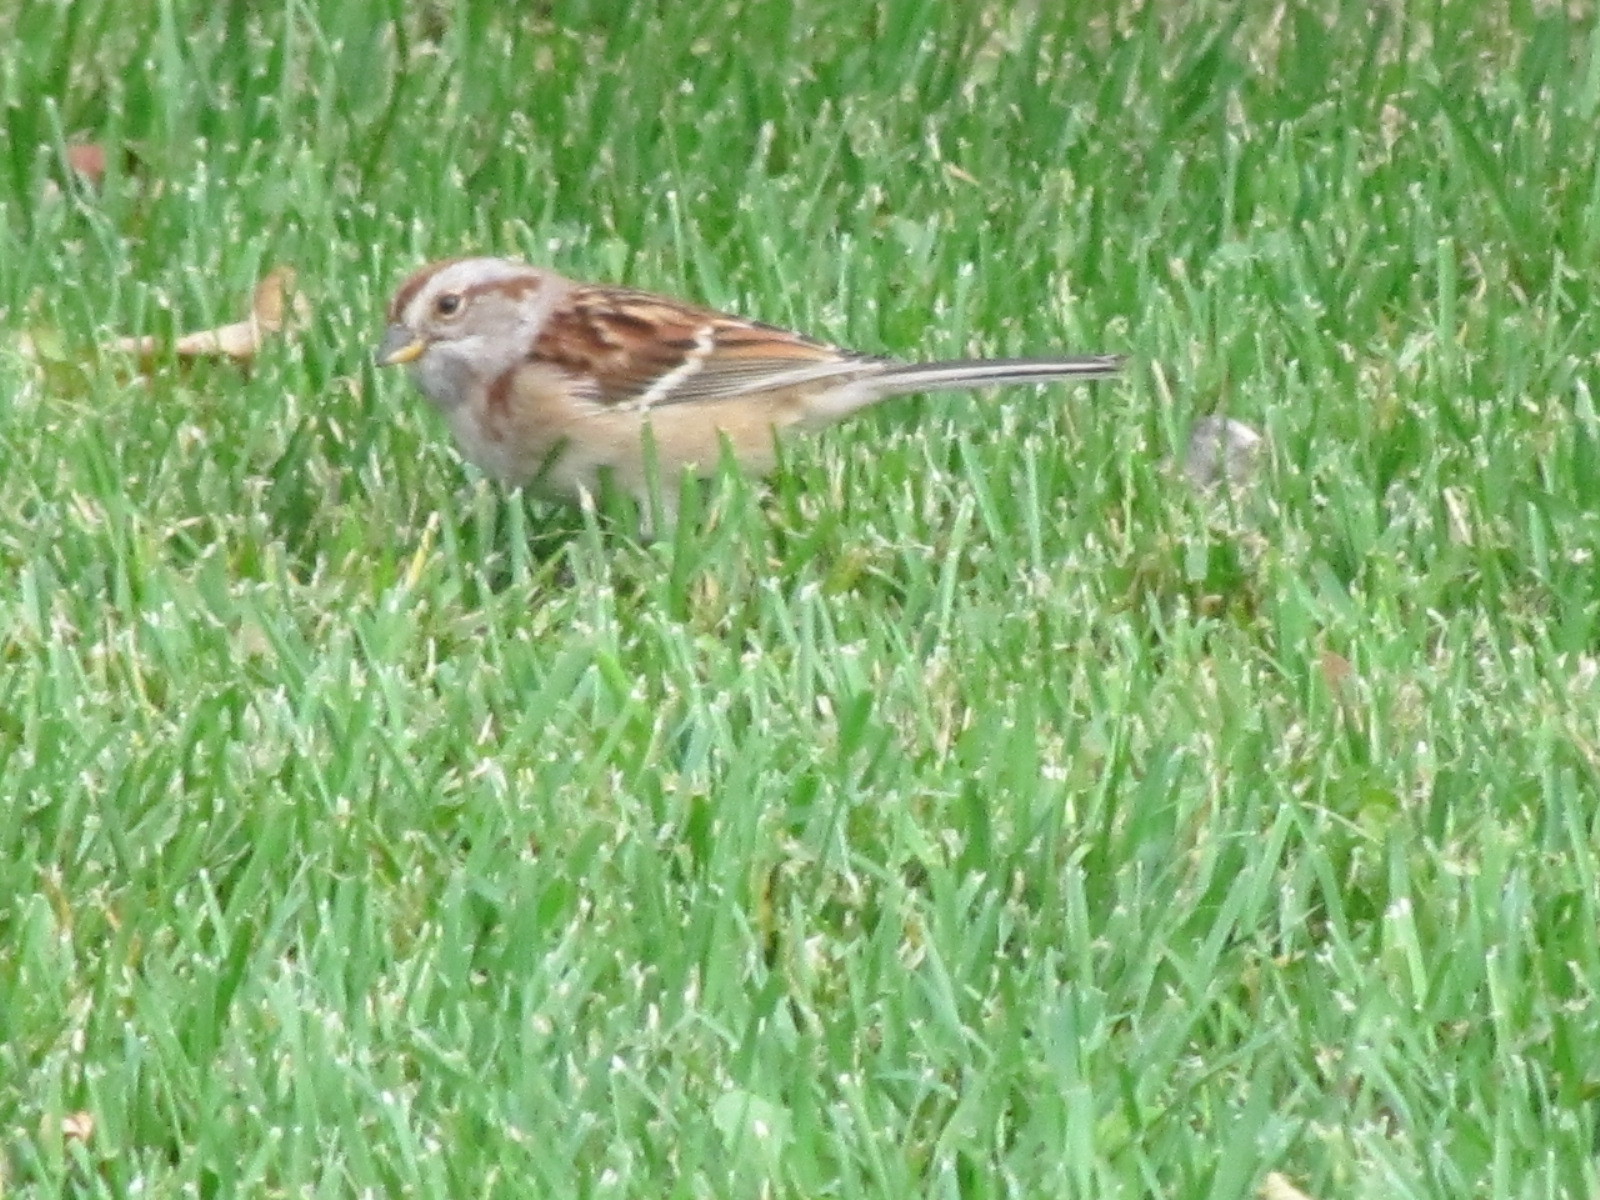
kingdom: Animalia
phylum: Chordata
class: Aves
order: Passeriformes
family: Passerellidae
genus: Spizelloides
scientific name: Spizelloides arborea
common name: American tree sparrow
